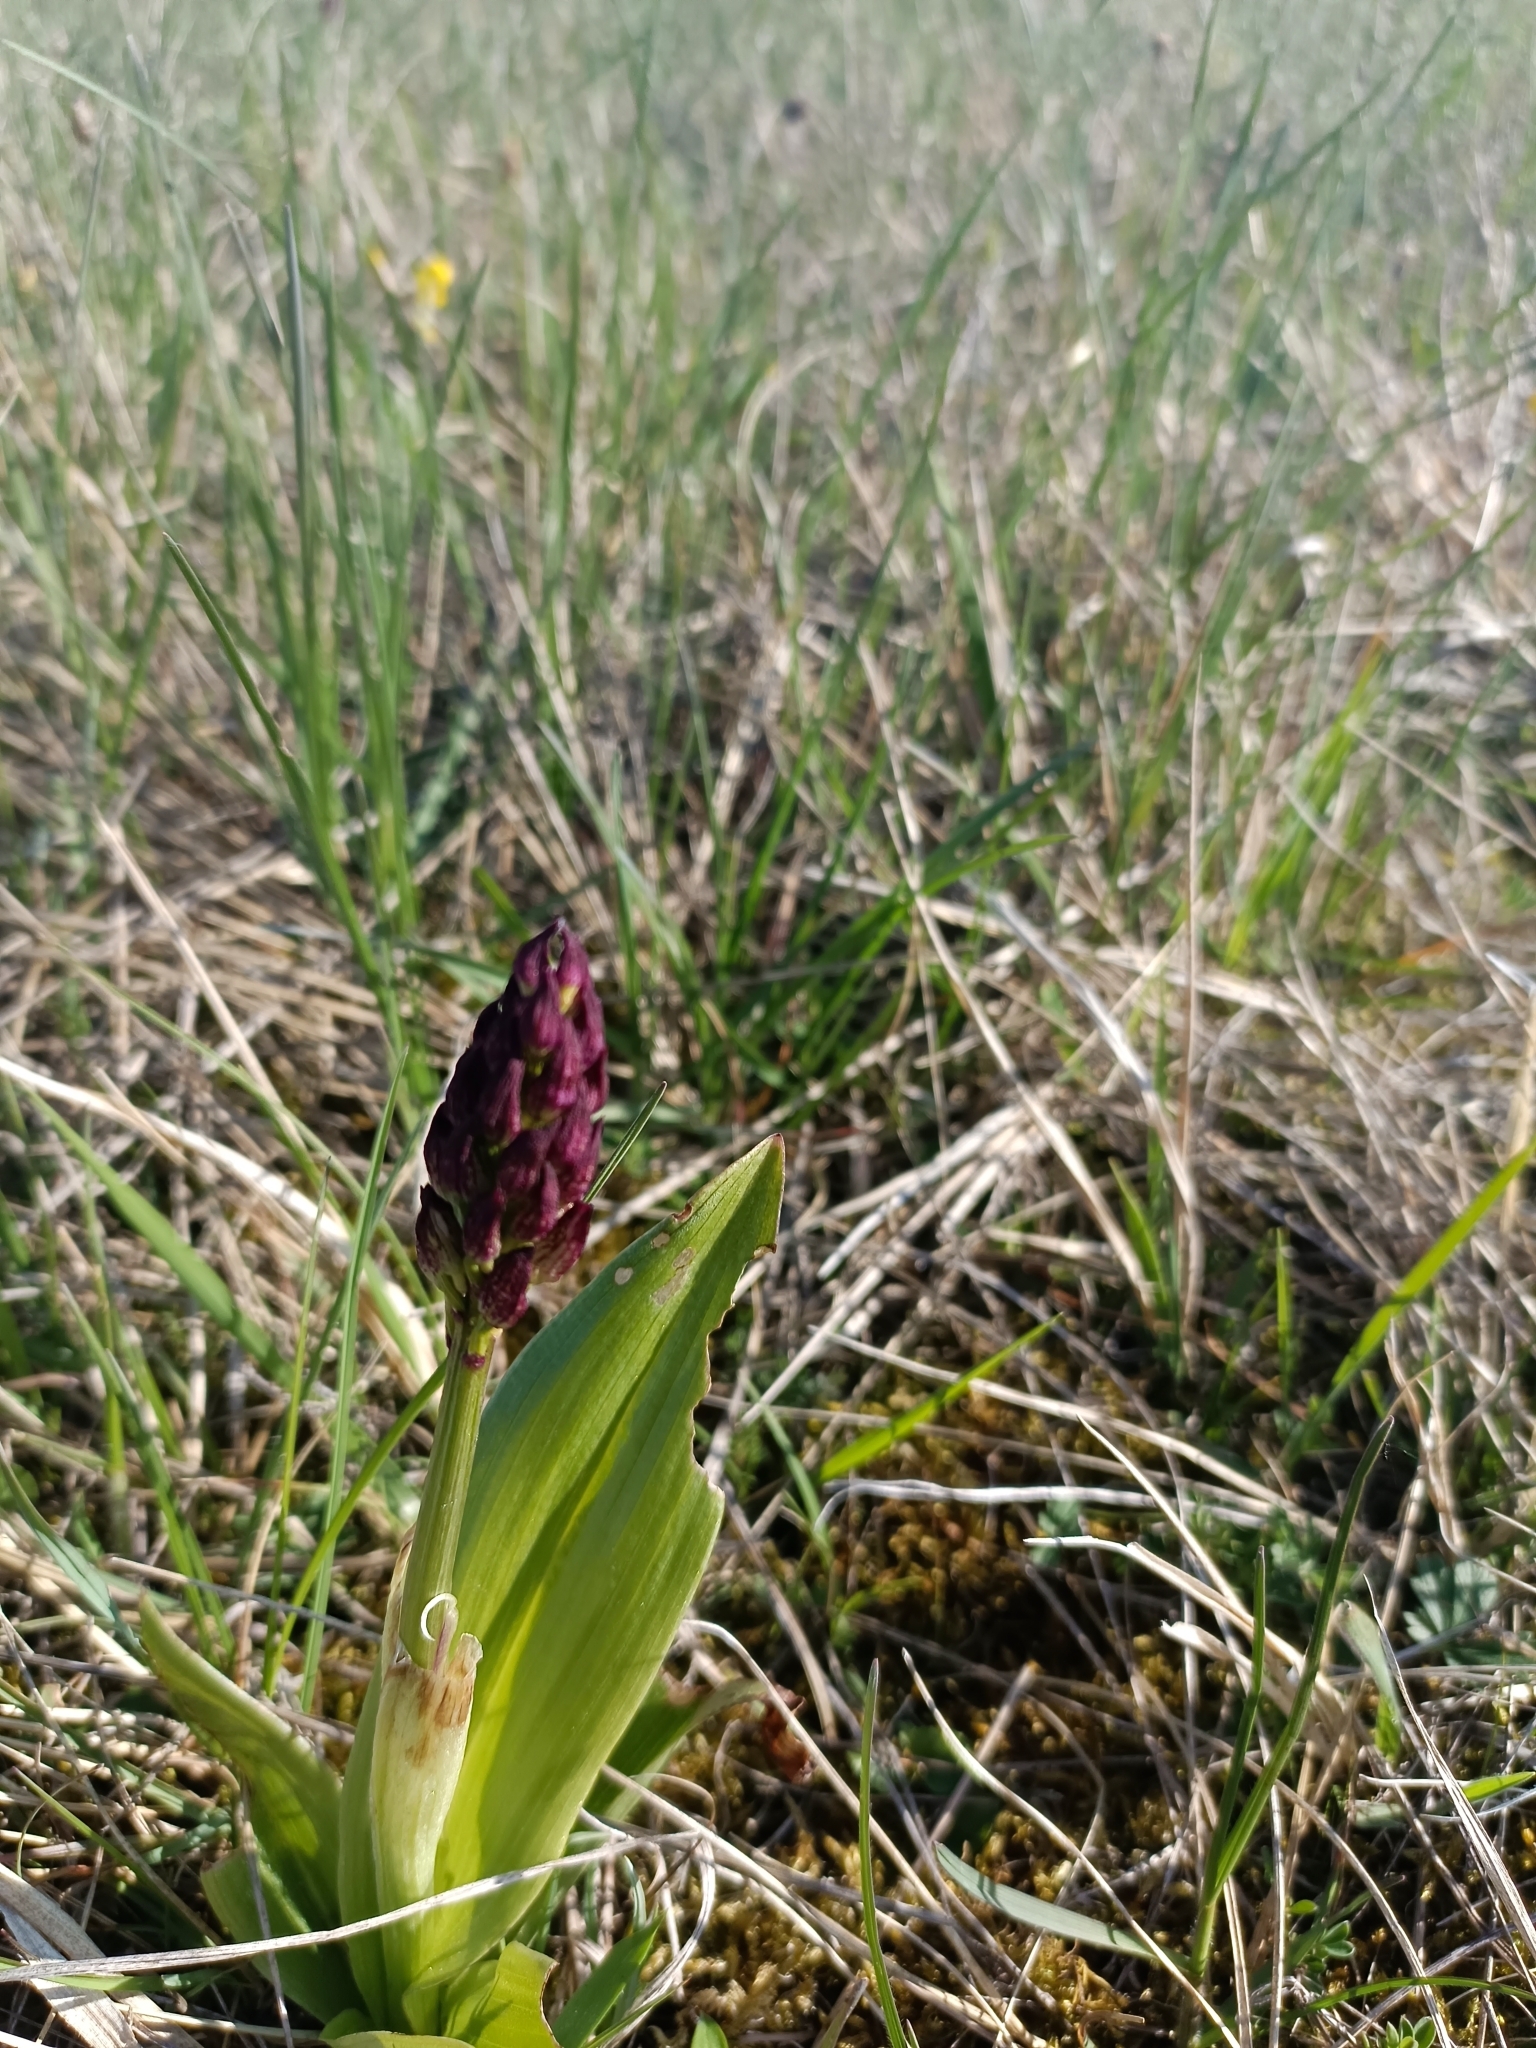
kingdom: Plantae
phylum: Tracheophyta
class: Liliopsida
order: Asparagales
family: Orchidaceae
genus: Orchis
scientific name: Orchis purpurea
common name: Lady orchid
